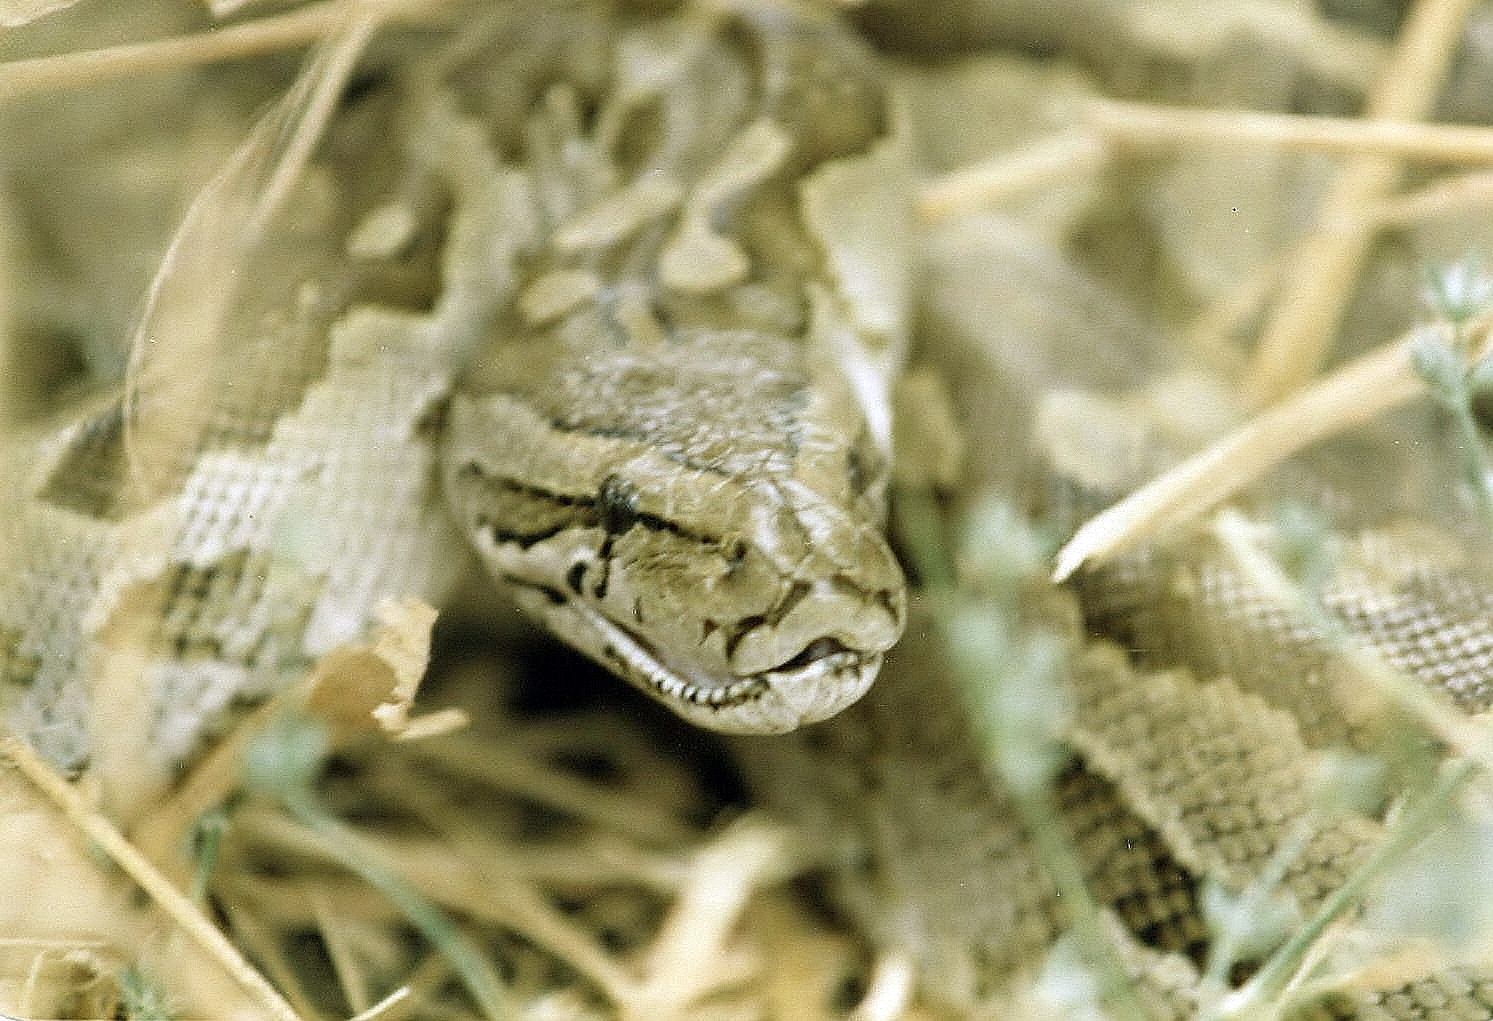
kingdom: Animalia
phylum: Chordata
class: Squamata
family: Pythonidae
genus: Python
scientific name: Python natalensis
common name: Southern african rock python
